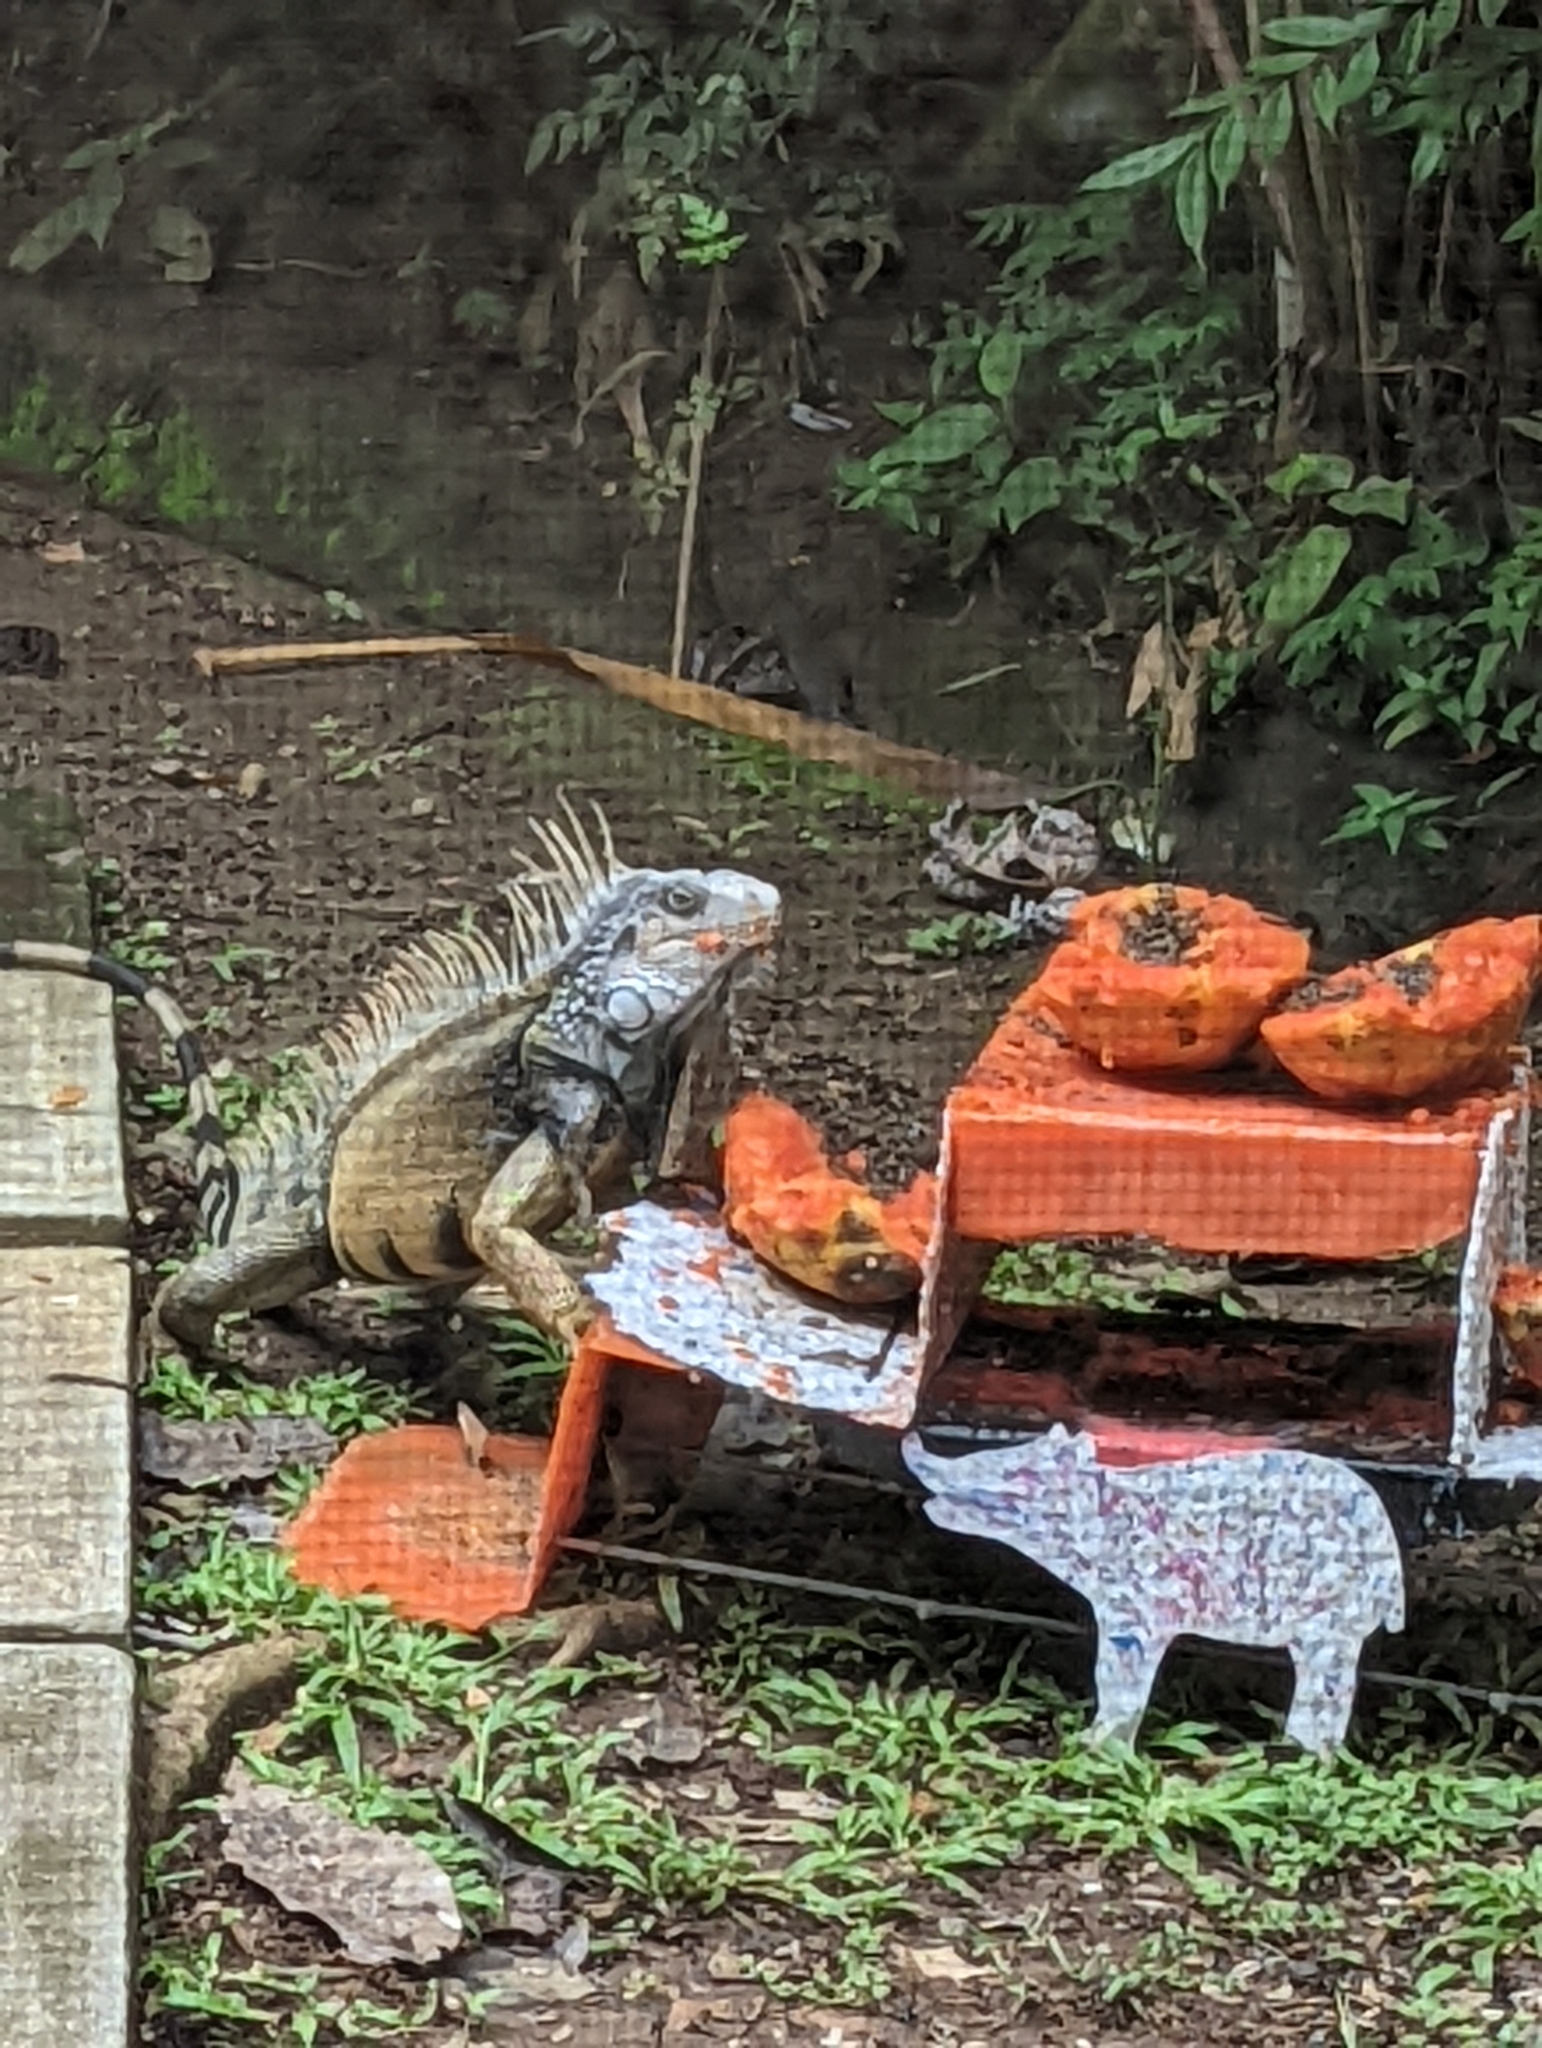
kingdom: Animalia
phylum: Chordata
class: Squamata
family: Iguanidae
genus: Iguana
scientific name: Iguana iguana
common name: Green iguana
